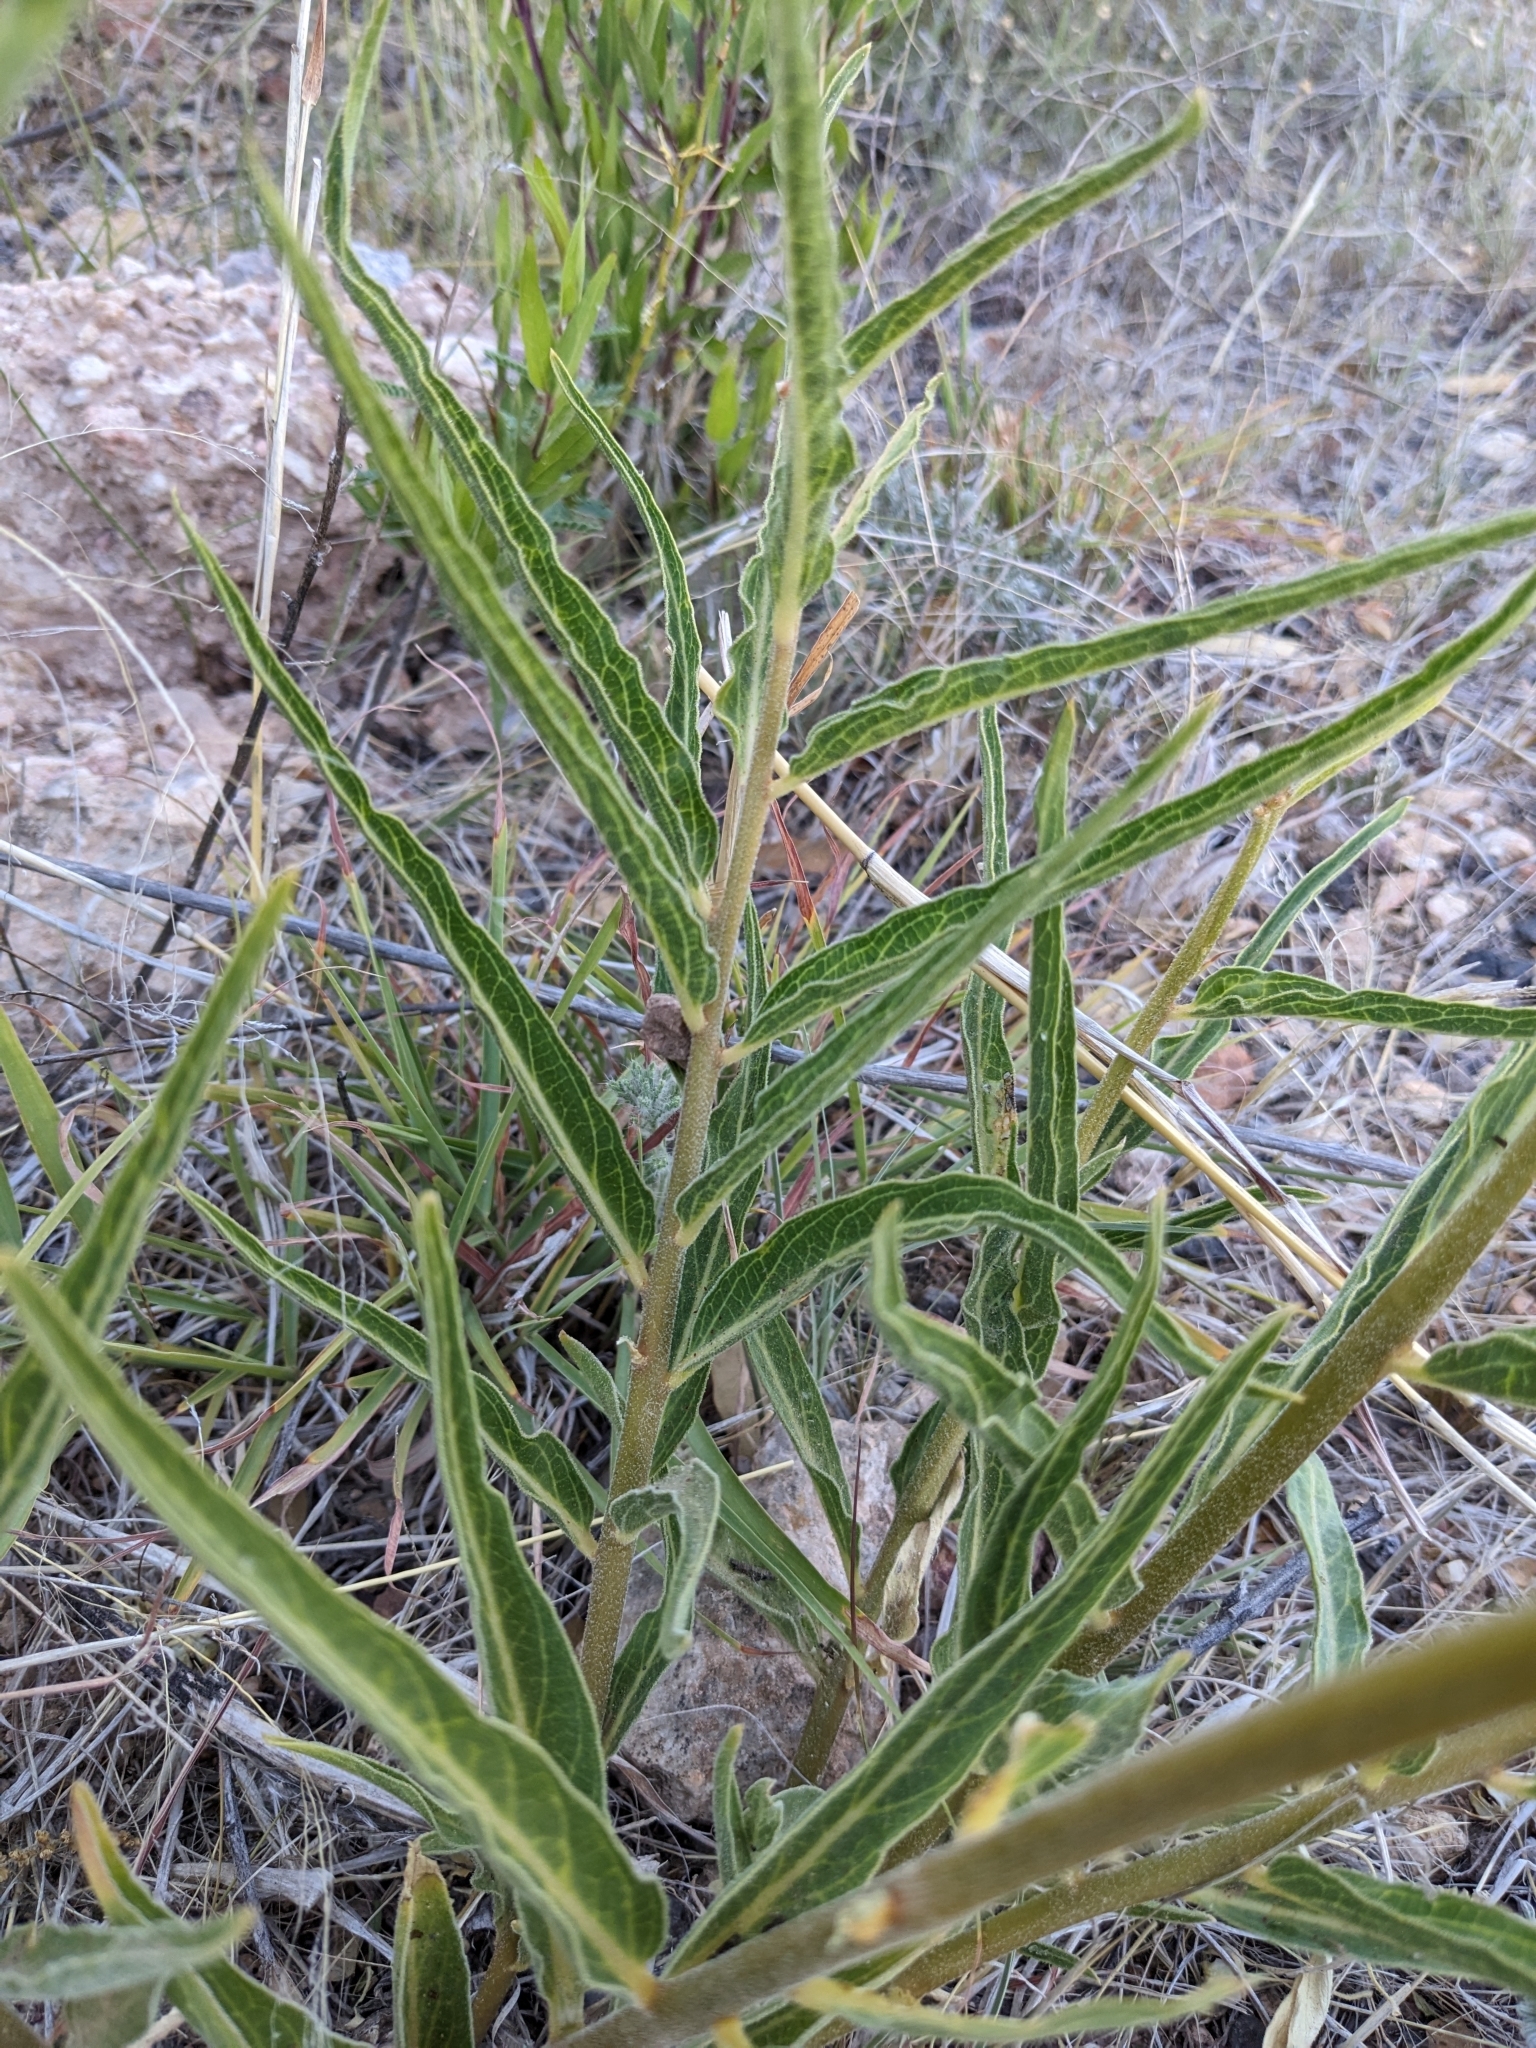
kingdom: Plantae
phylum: Tracheophyta
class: Magnoliopsida
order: Gentianales
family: Apocynaceae
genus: Asclepias
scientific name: Asclepias asperula
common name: Antelope horns
